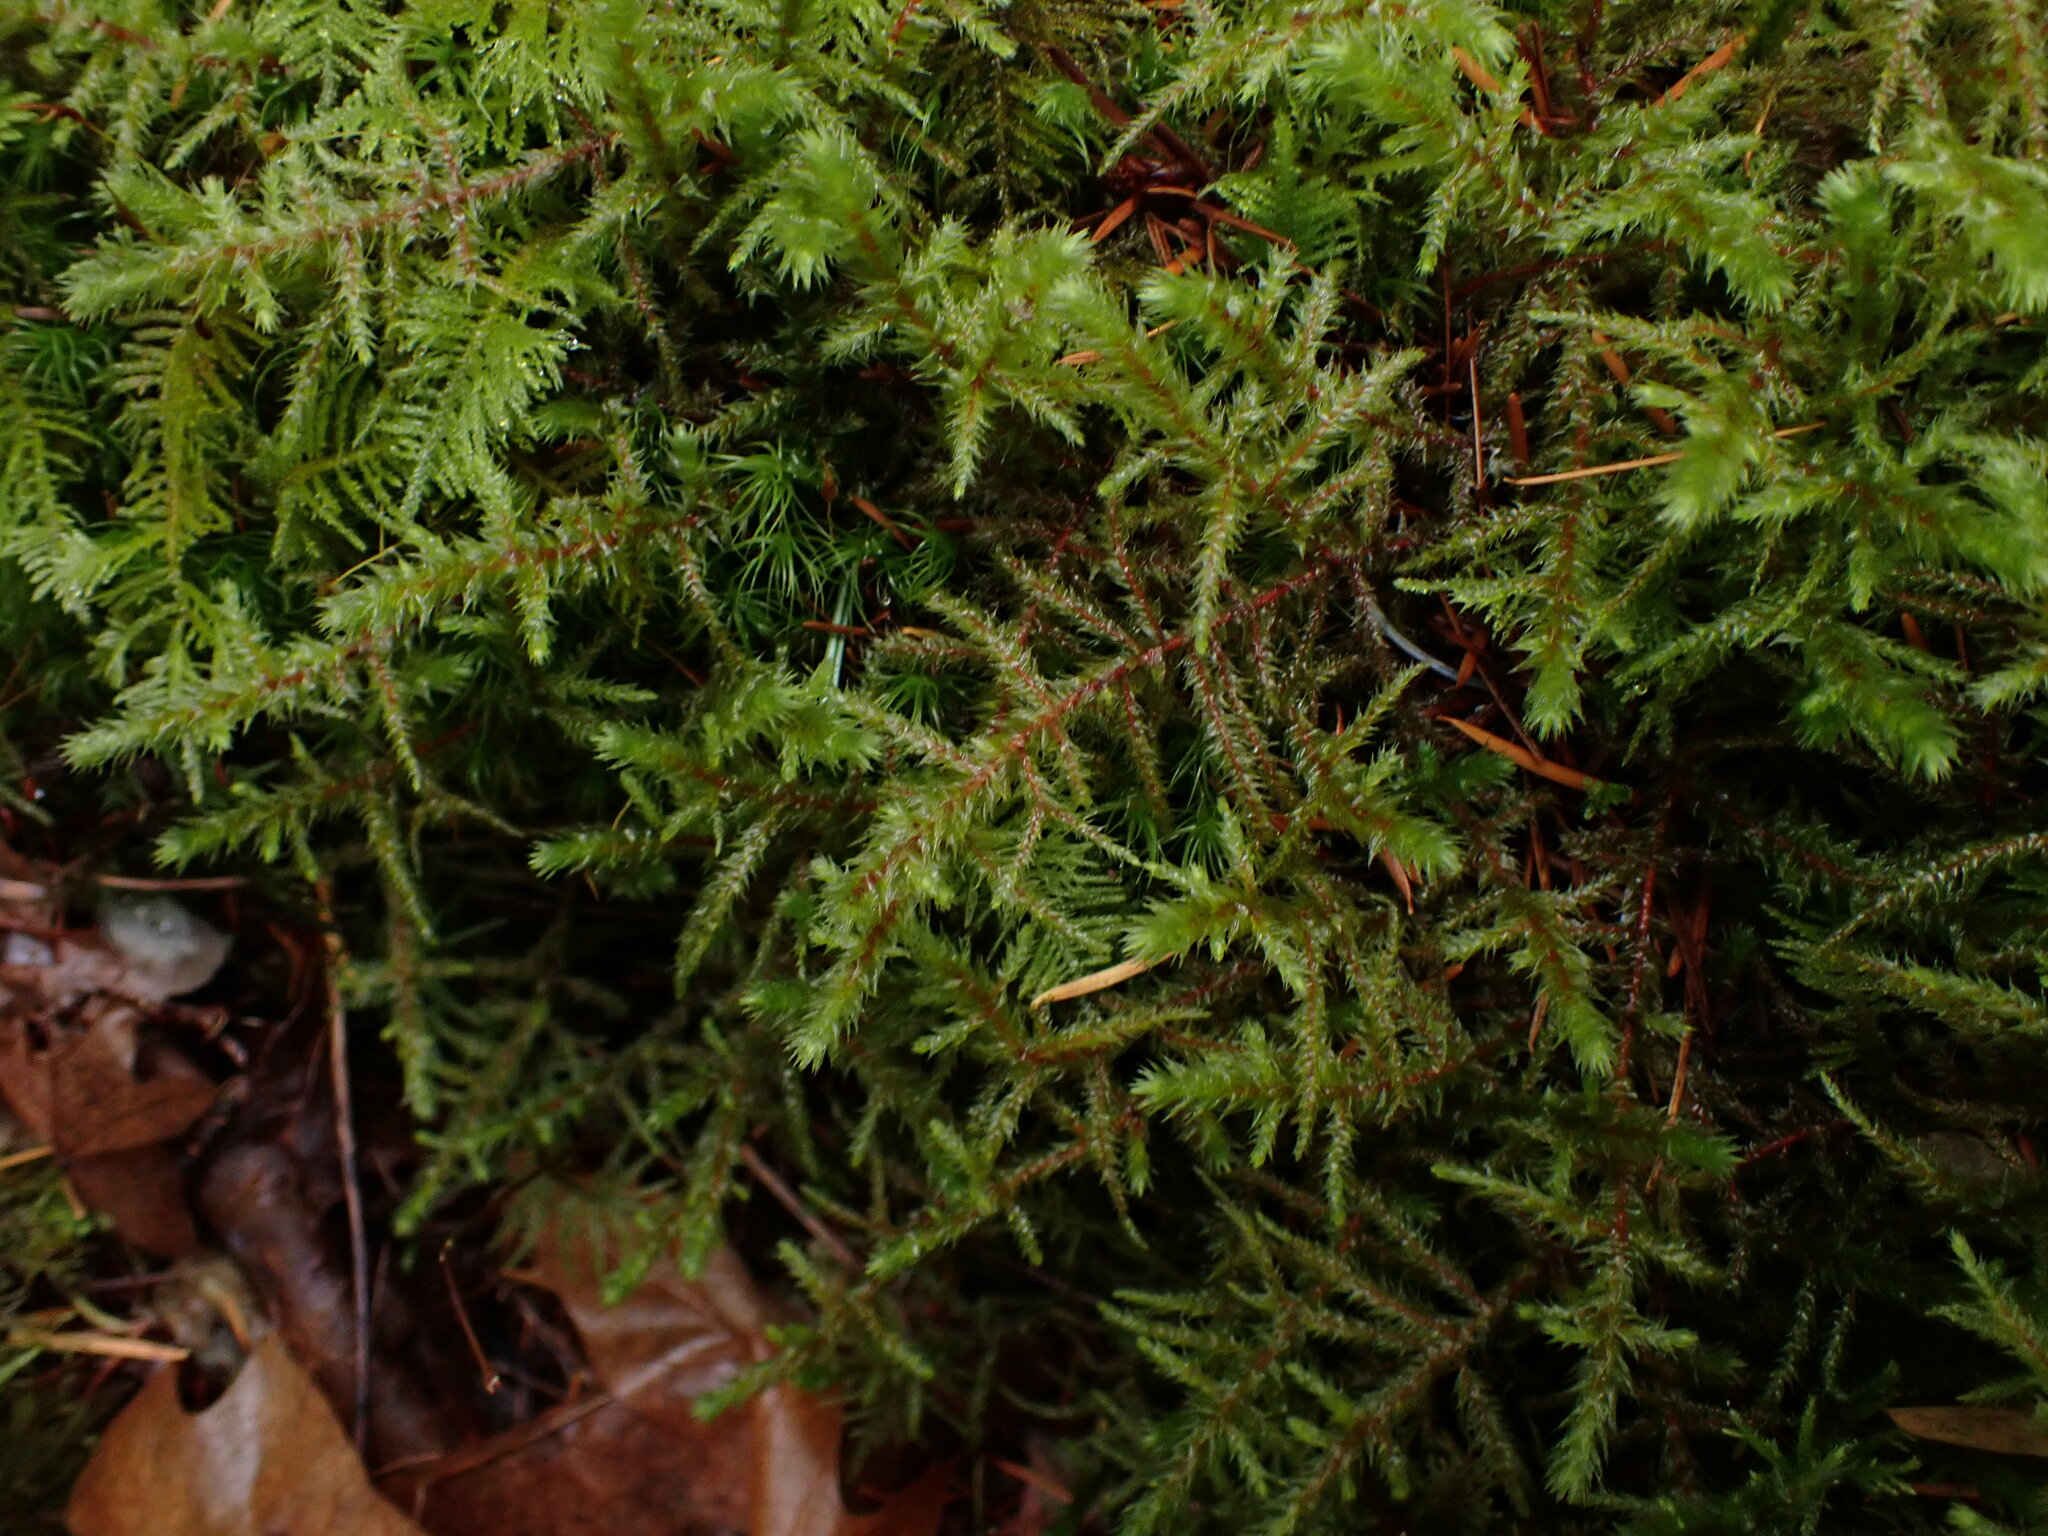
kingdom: Plantae
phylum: Bryophyta
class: Bryopsida
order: Hypnales
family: Hylocomiaceae
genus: Hylocomiadelphus
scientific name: Hylocomiadelphus triquetrus
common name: Rough goose neck moss
